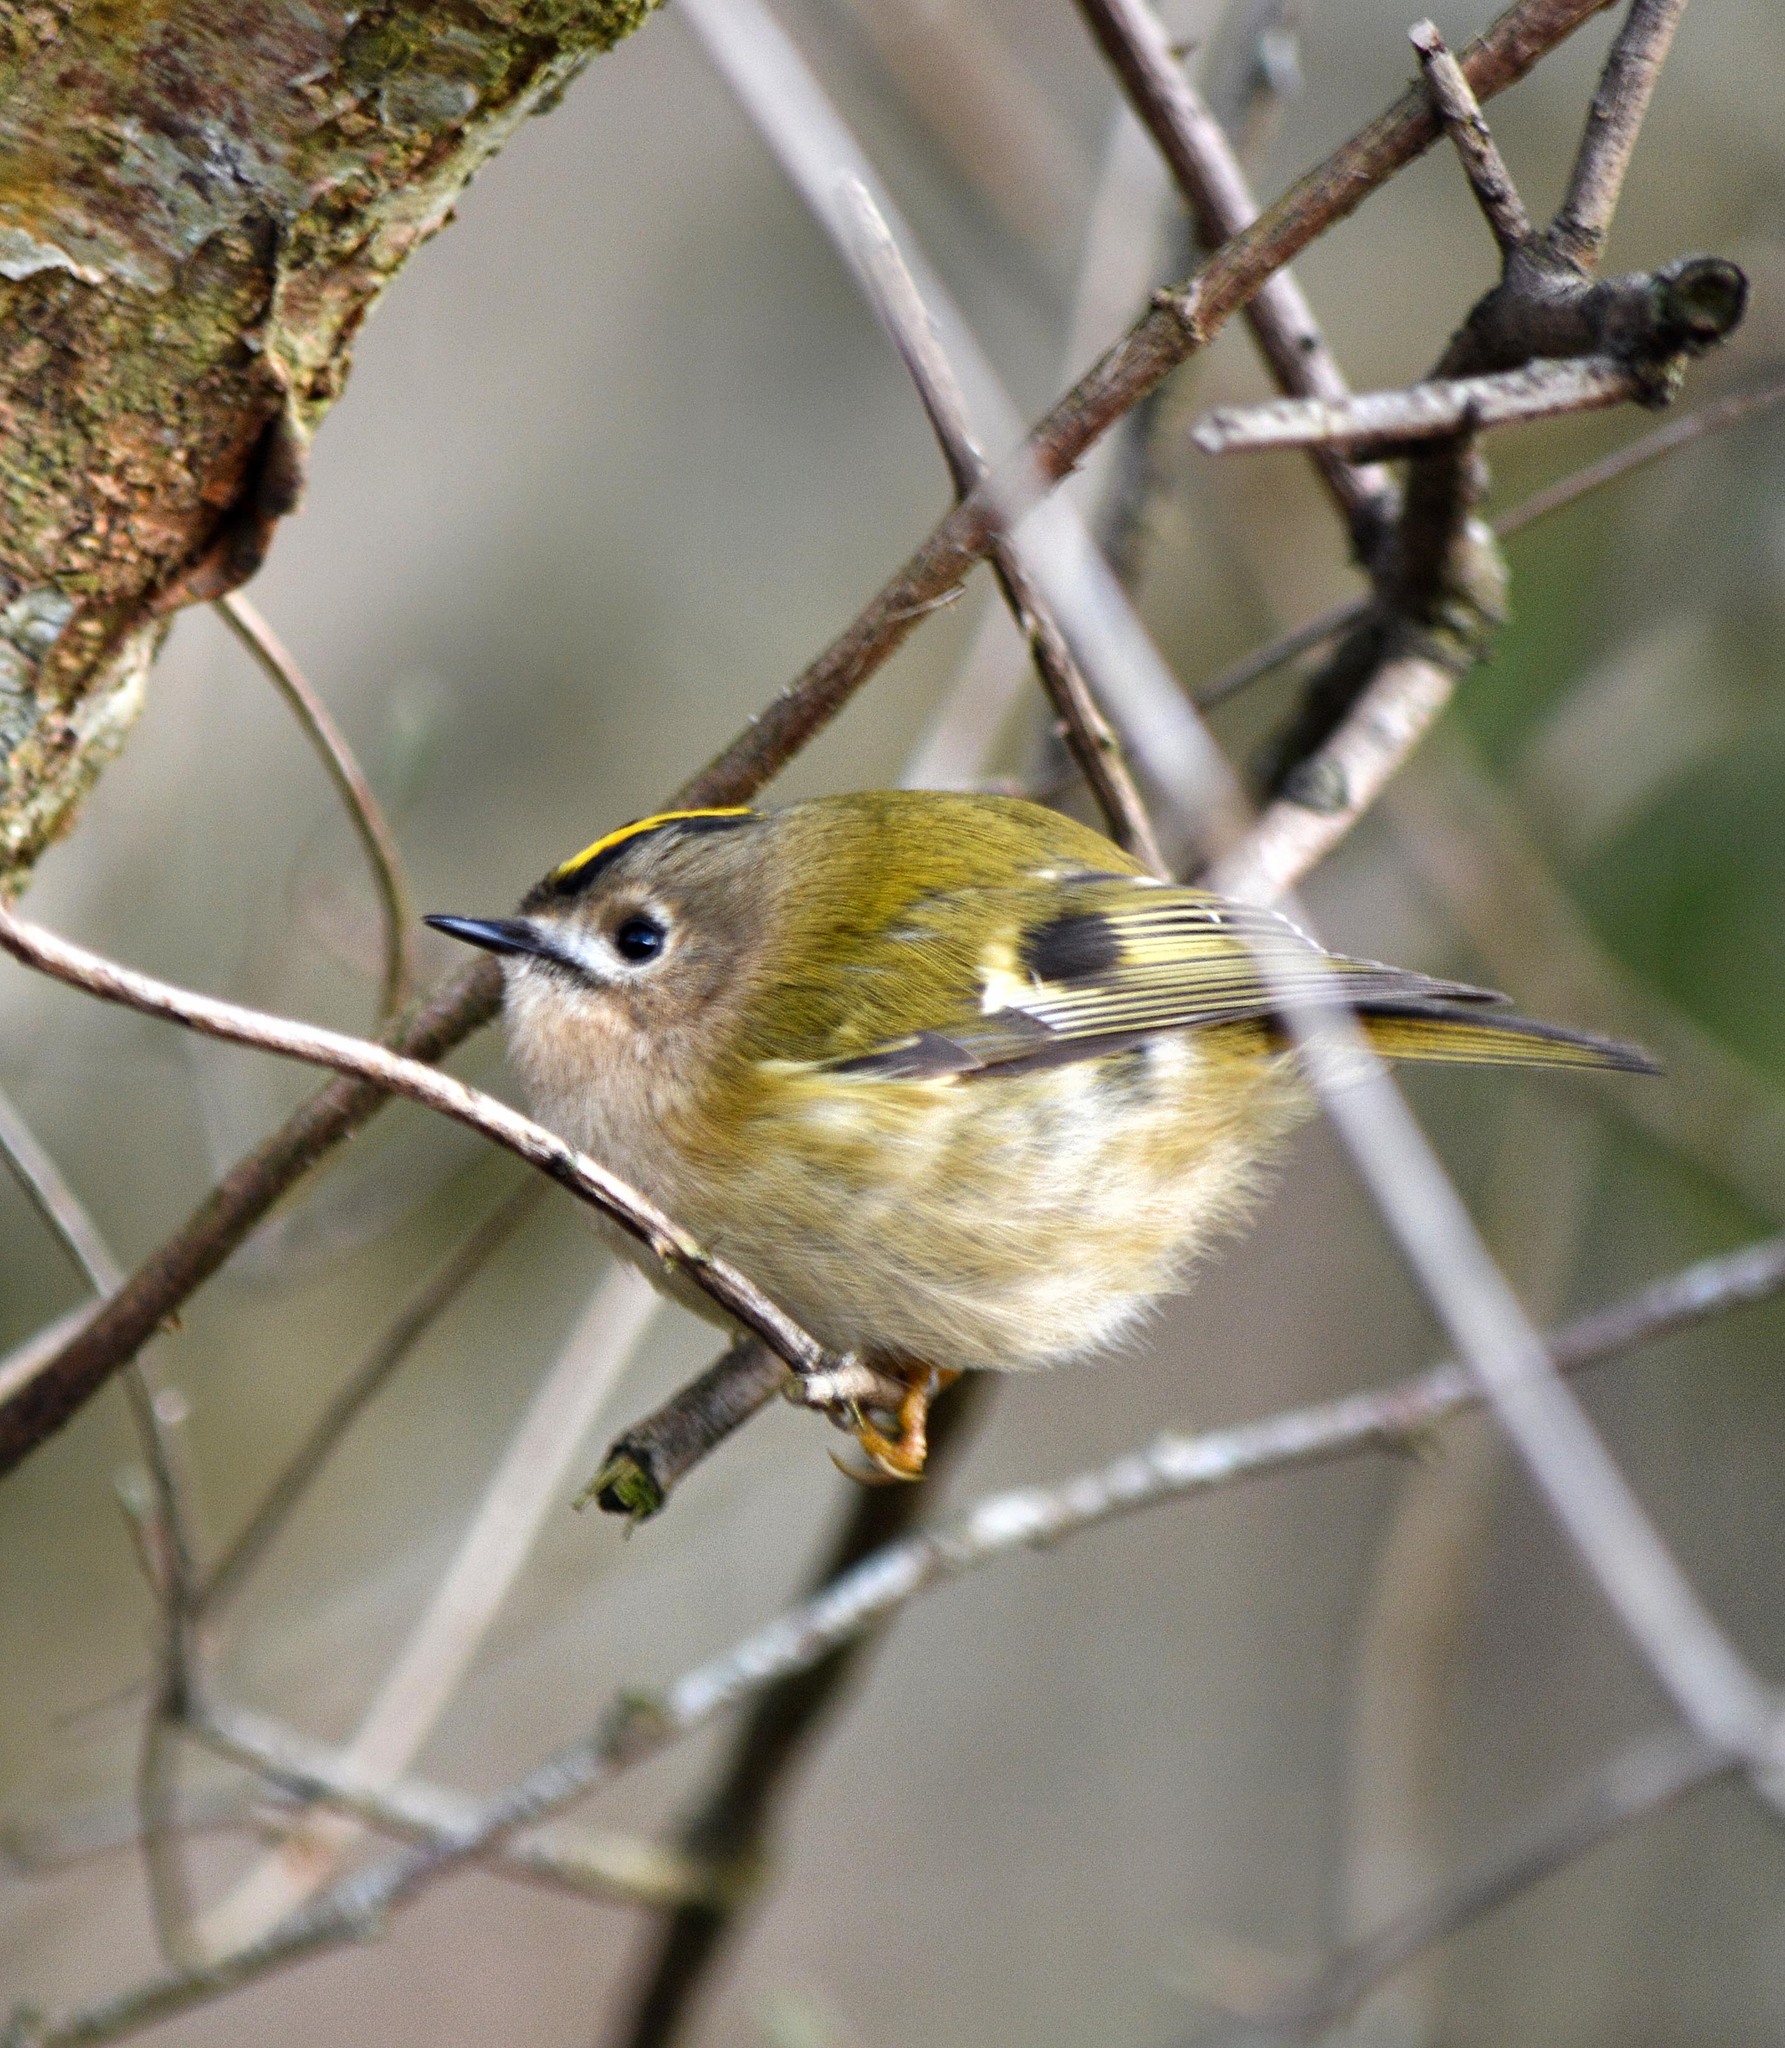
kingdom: Animalia
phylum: Chordata
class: Aves
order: Passeriformes
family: Regulidae
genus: Regulus
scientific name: Regulus regulus
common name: Goldcrest
